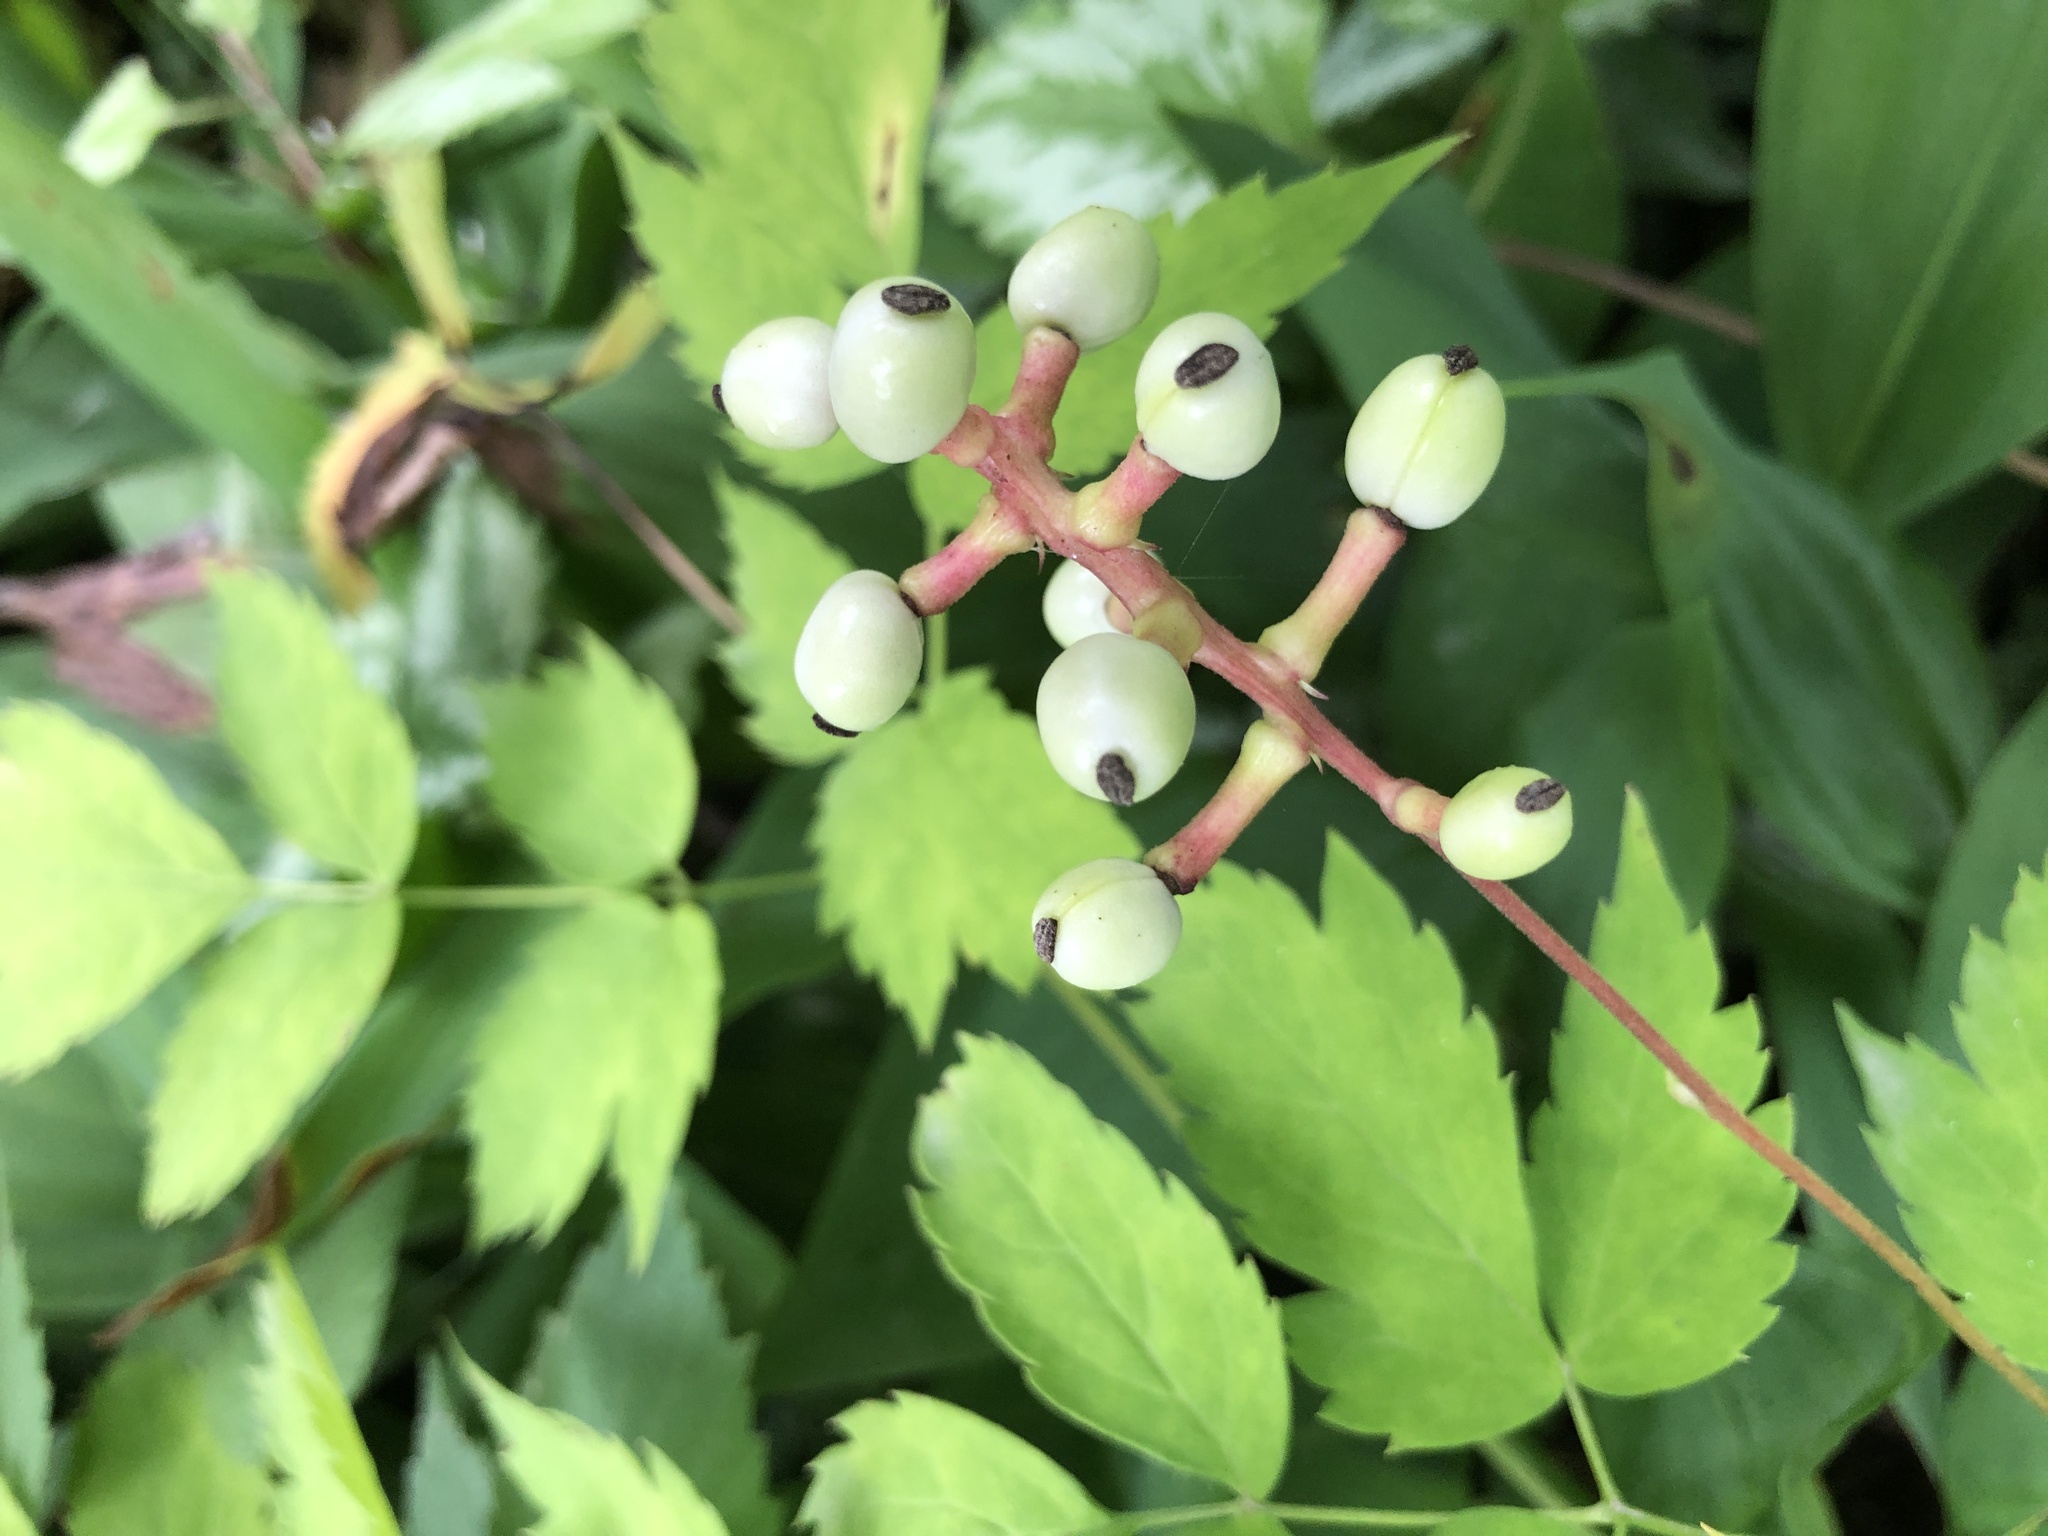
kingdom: Plantae
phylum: Tracheophyta
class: Magnoliopsida
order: Ranunculales
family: Ranunculaceae
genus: Actaea
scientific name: Actaea pachypoda
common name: Doll's-eyes
